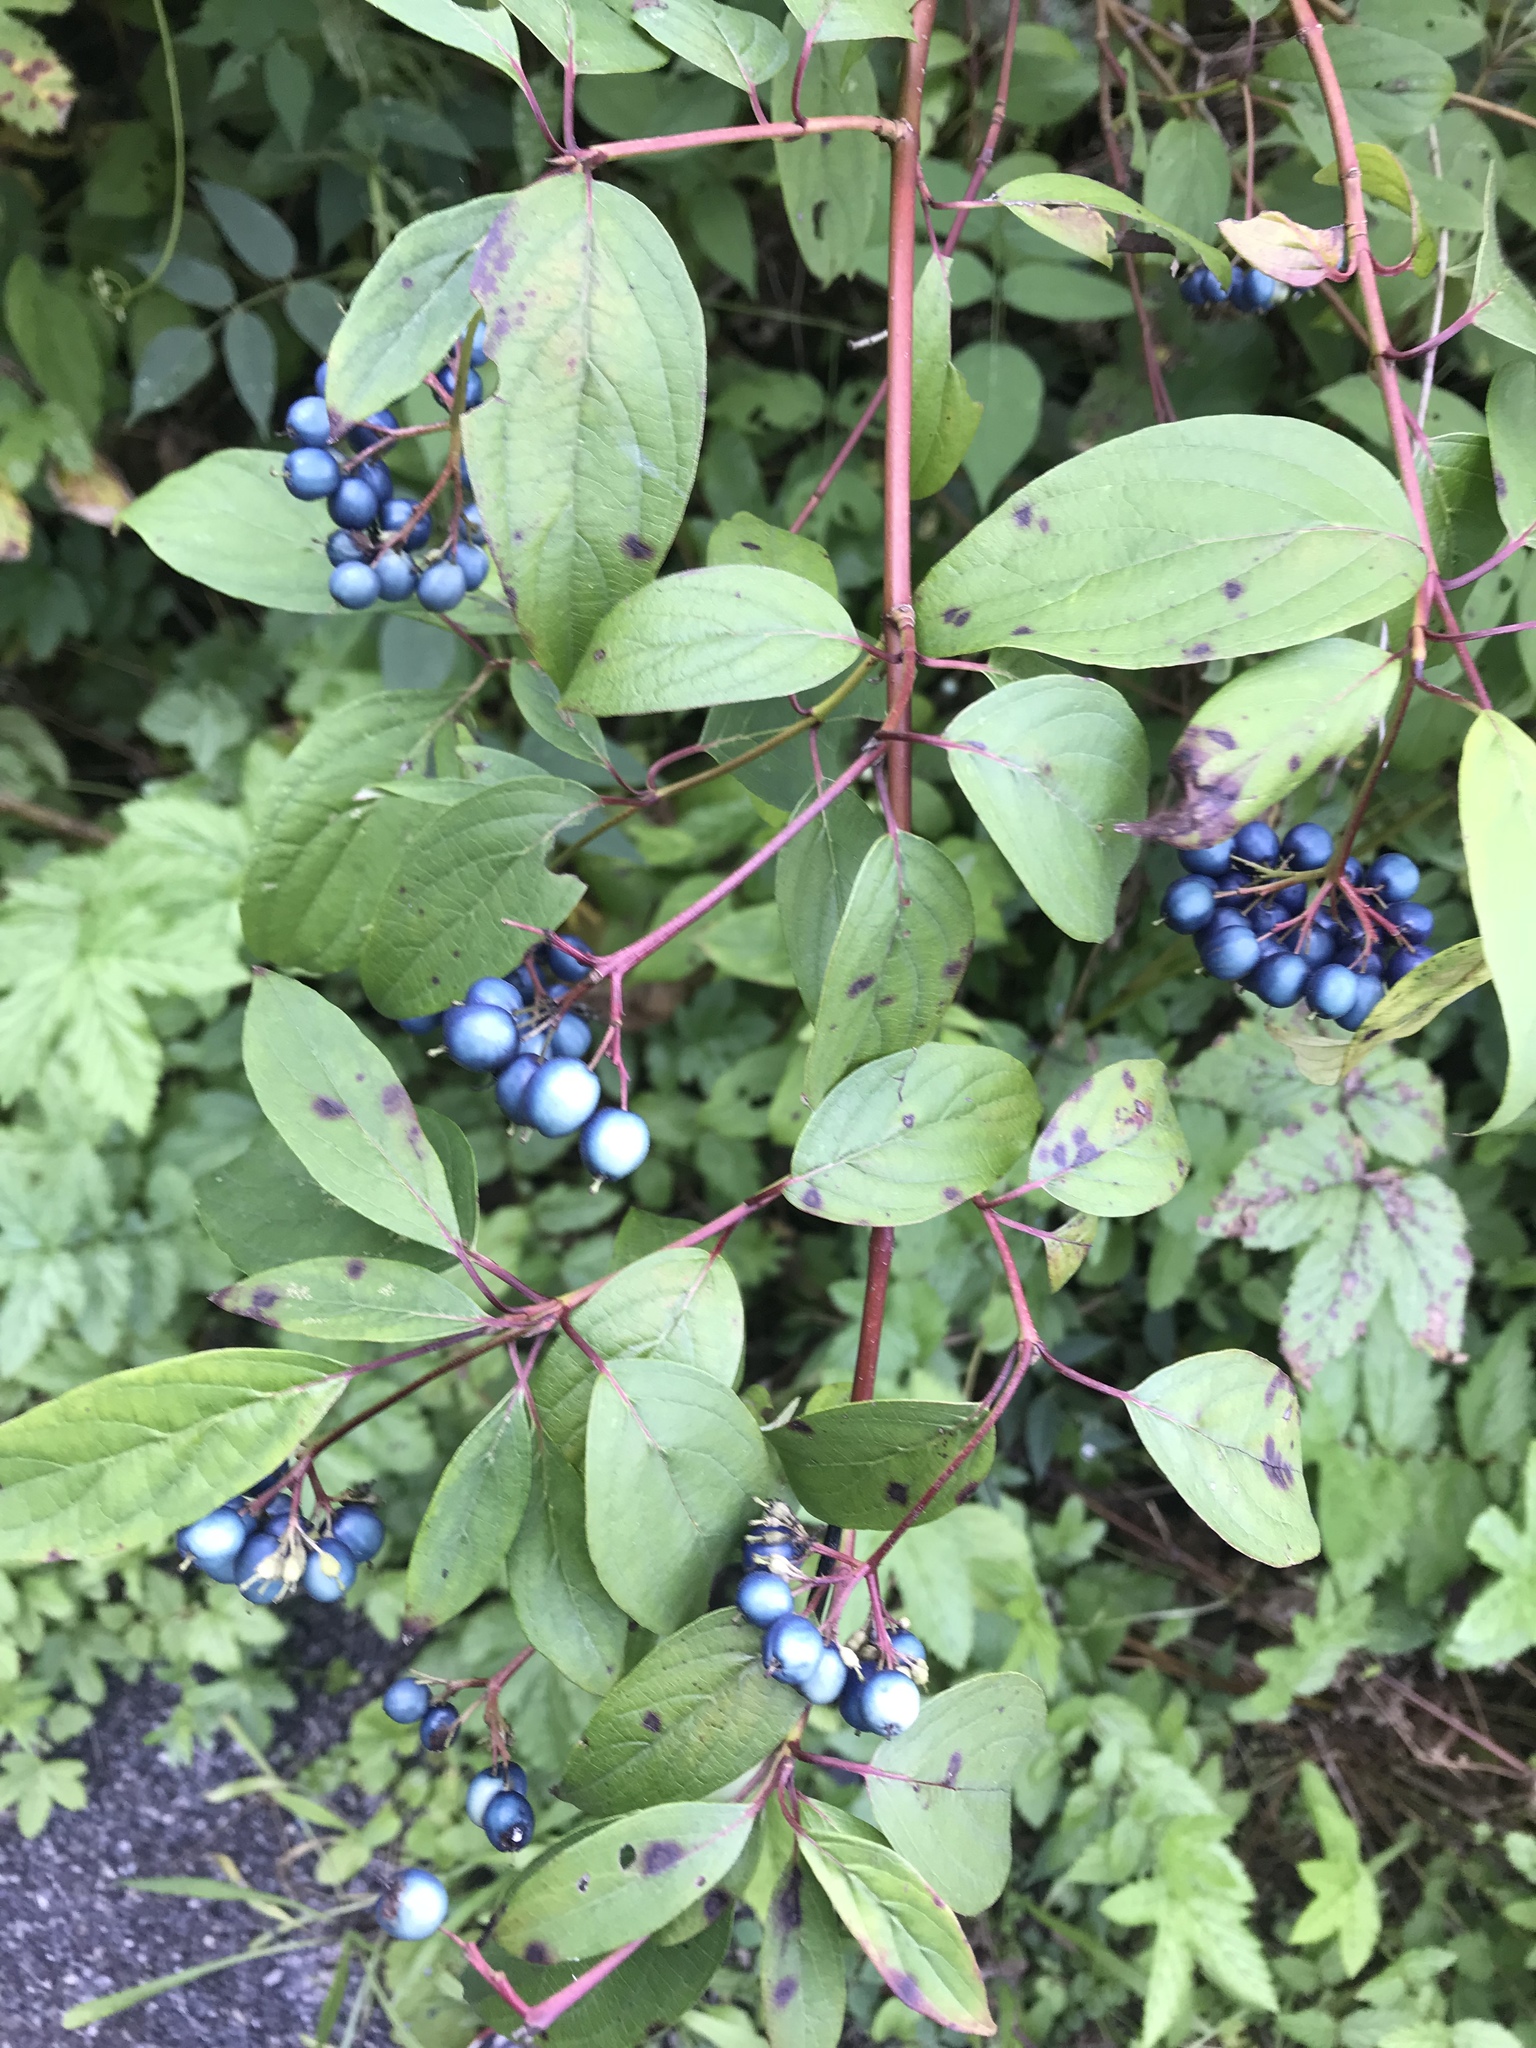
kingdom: Plantae
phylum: Tracheophyta
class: Magnoliopsida
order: Cornales
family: Cornaceae
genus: Cornus
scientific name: Cornus amomum
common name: Silky dogwood
